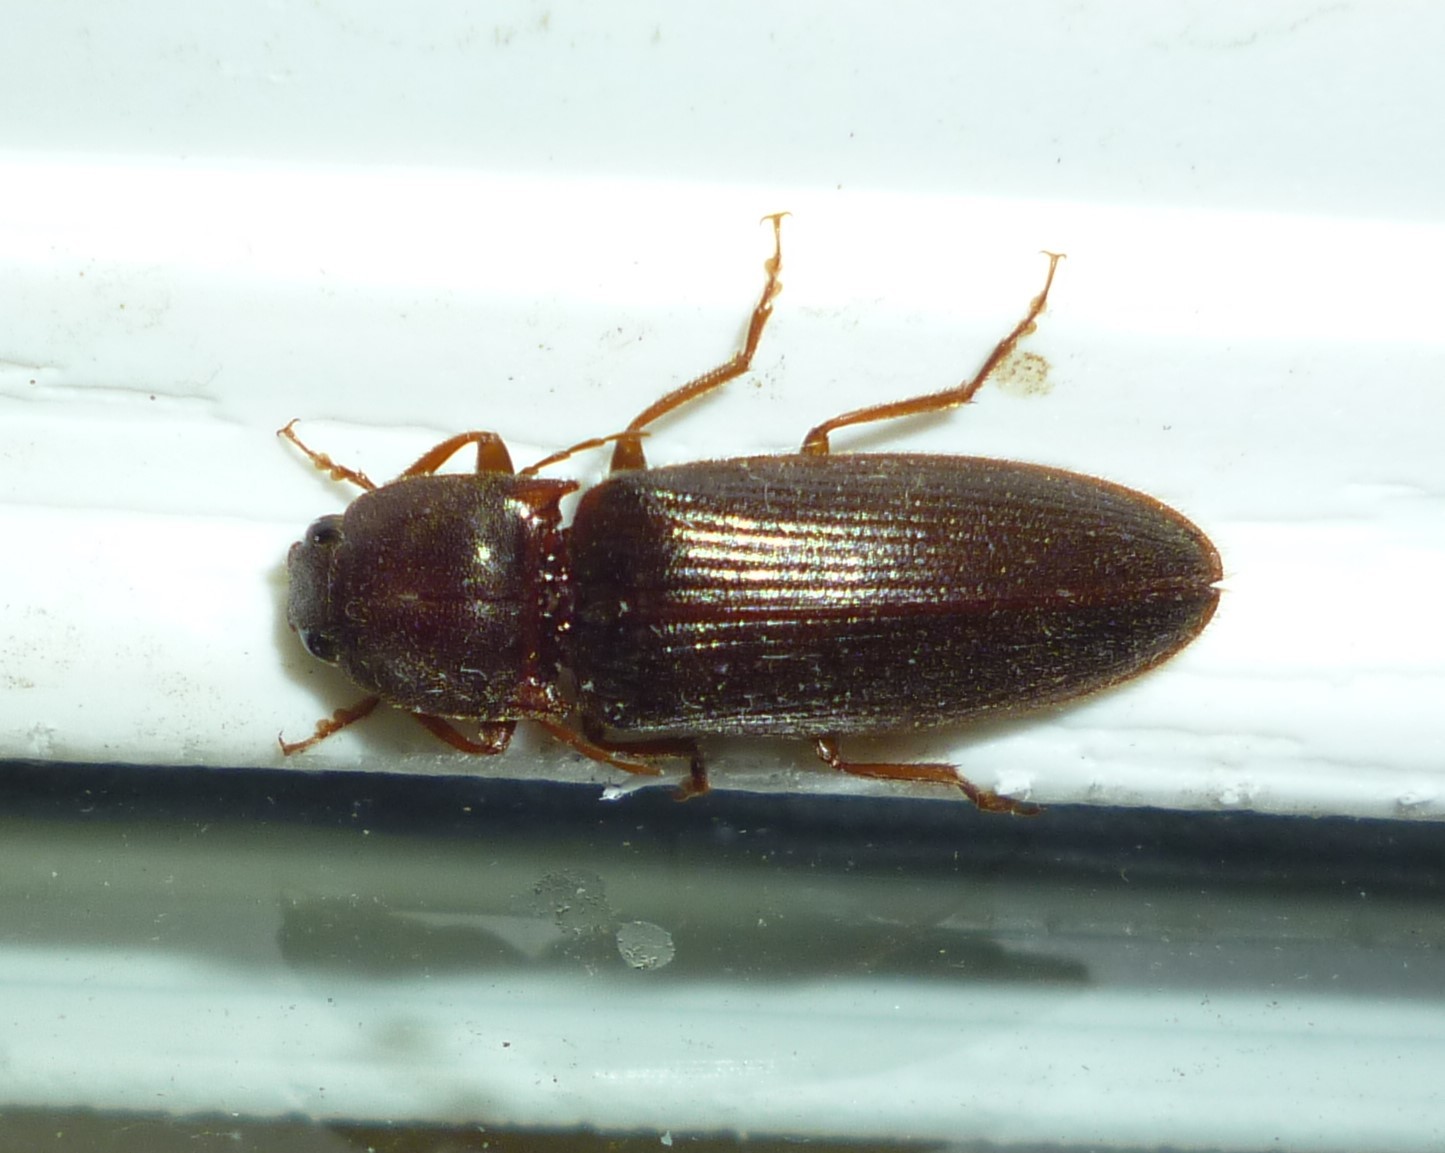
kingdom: Animalia
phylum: Arthropoda
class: Insecta
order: Coleoptera
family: Elateridae
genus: Hemicrepidius
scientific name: Hemicrepidius
